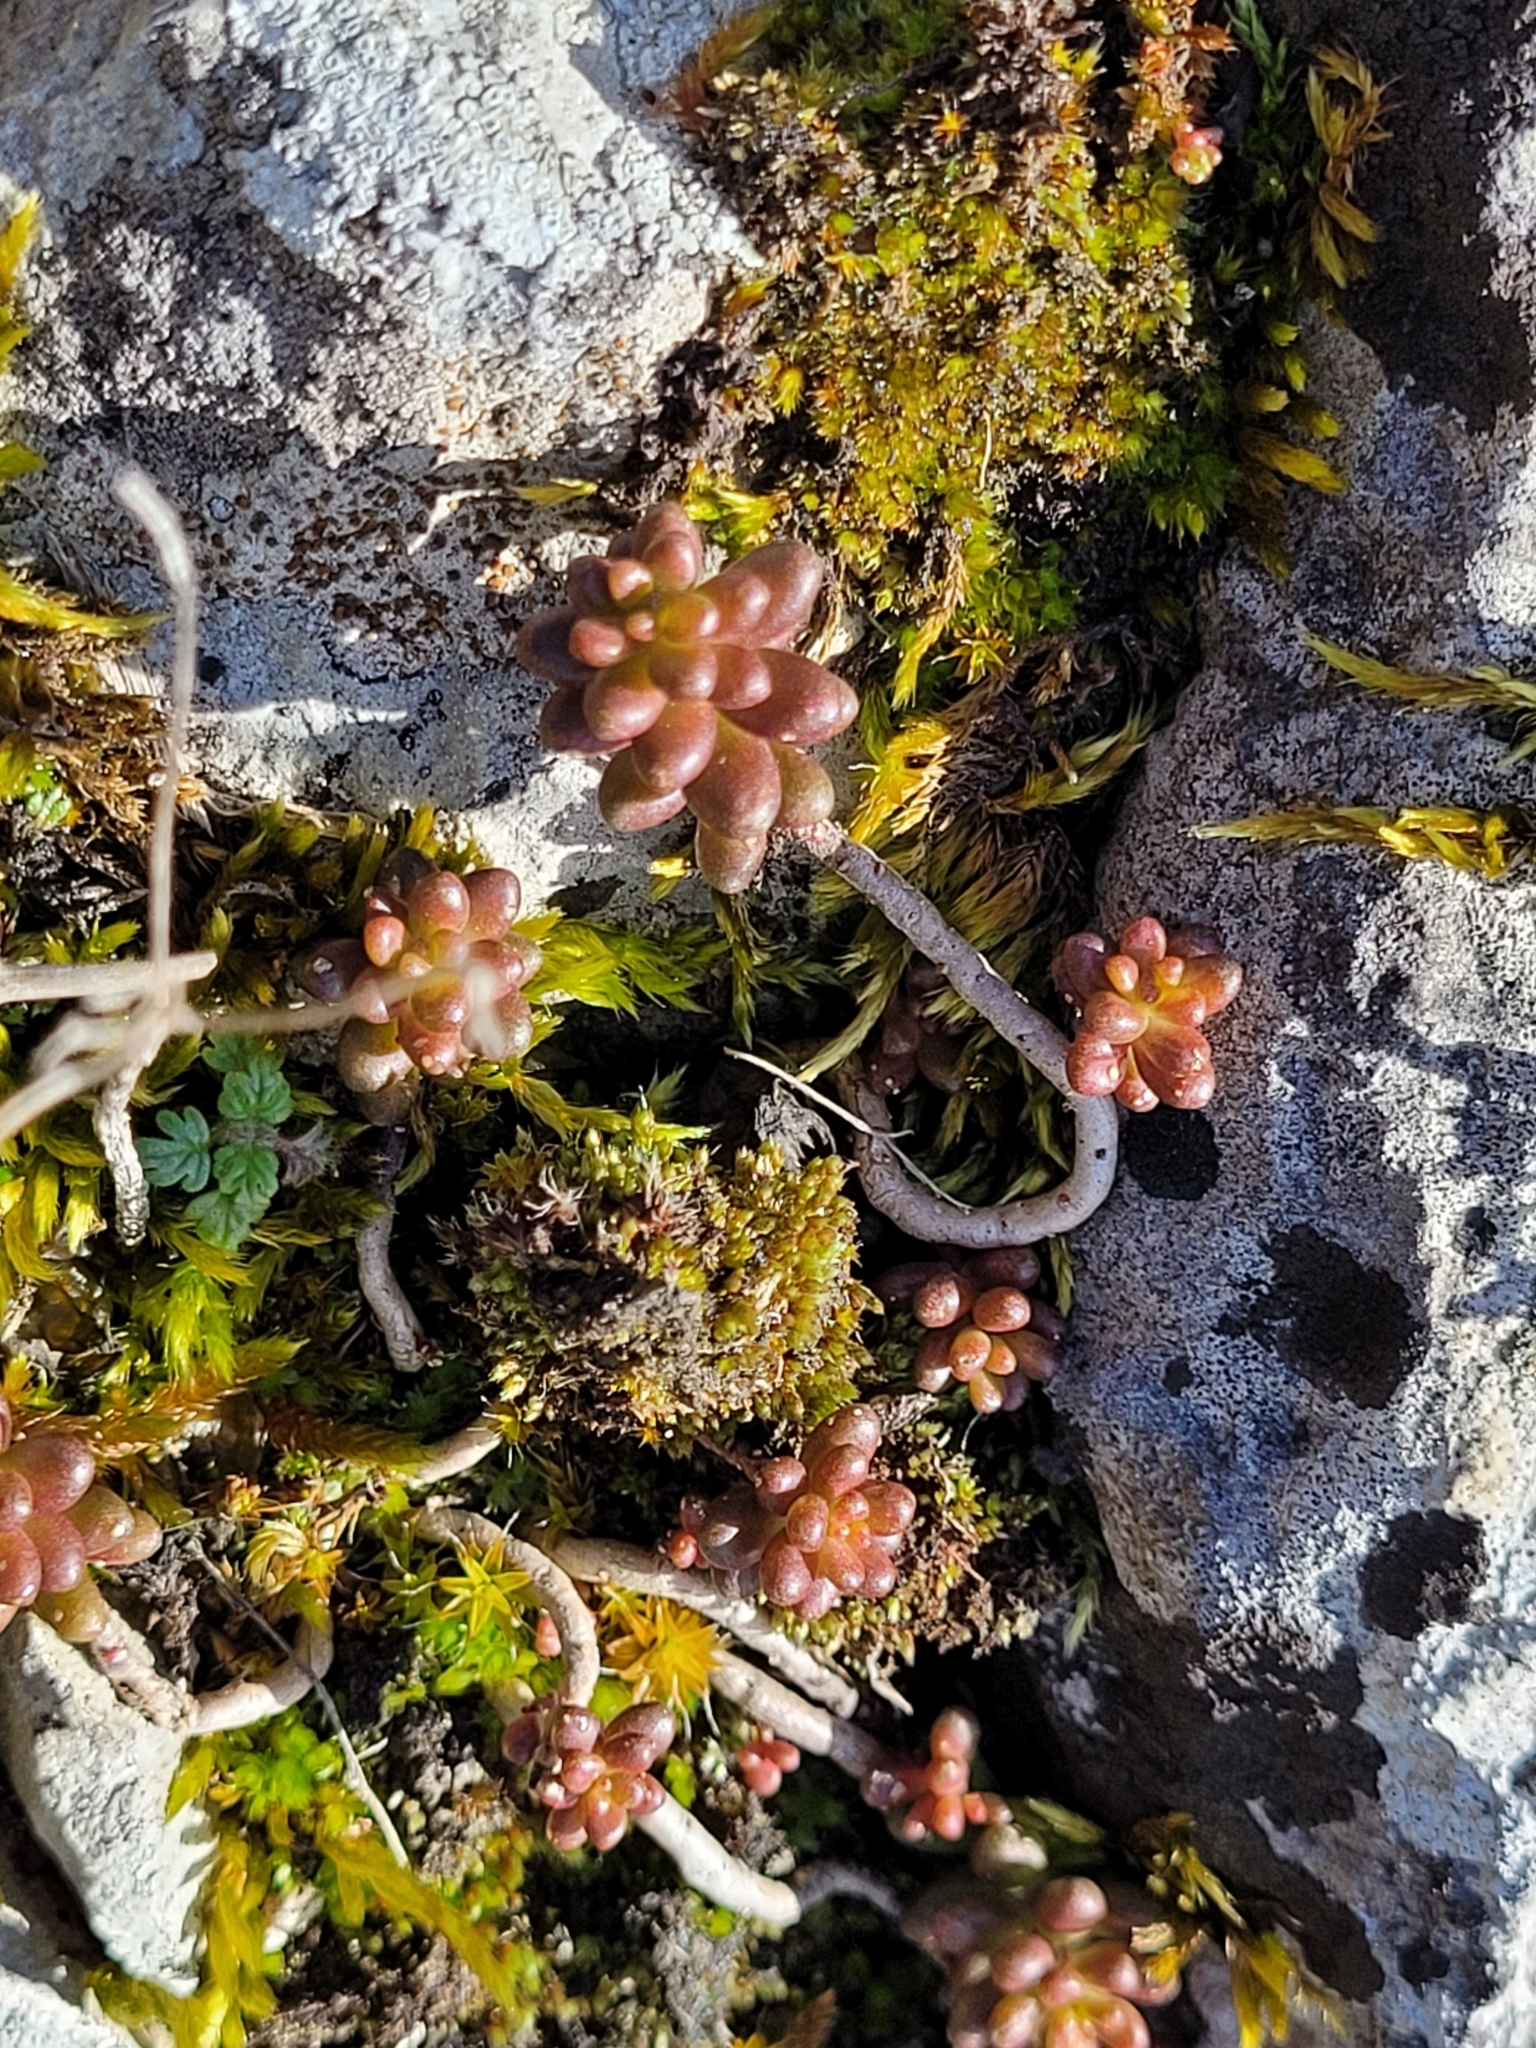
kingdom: Plantae
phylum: Tracheophyta
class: Magnoliopsida
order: Saxifragales
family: Crassulaceae
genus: Sedum
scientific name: Sedum album
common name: White stonecrop
